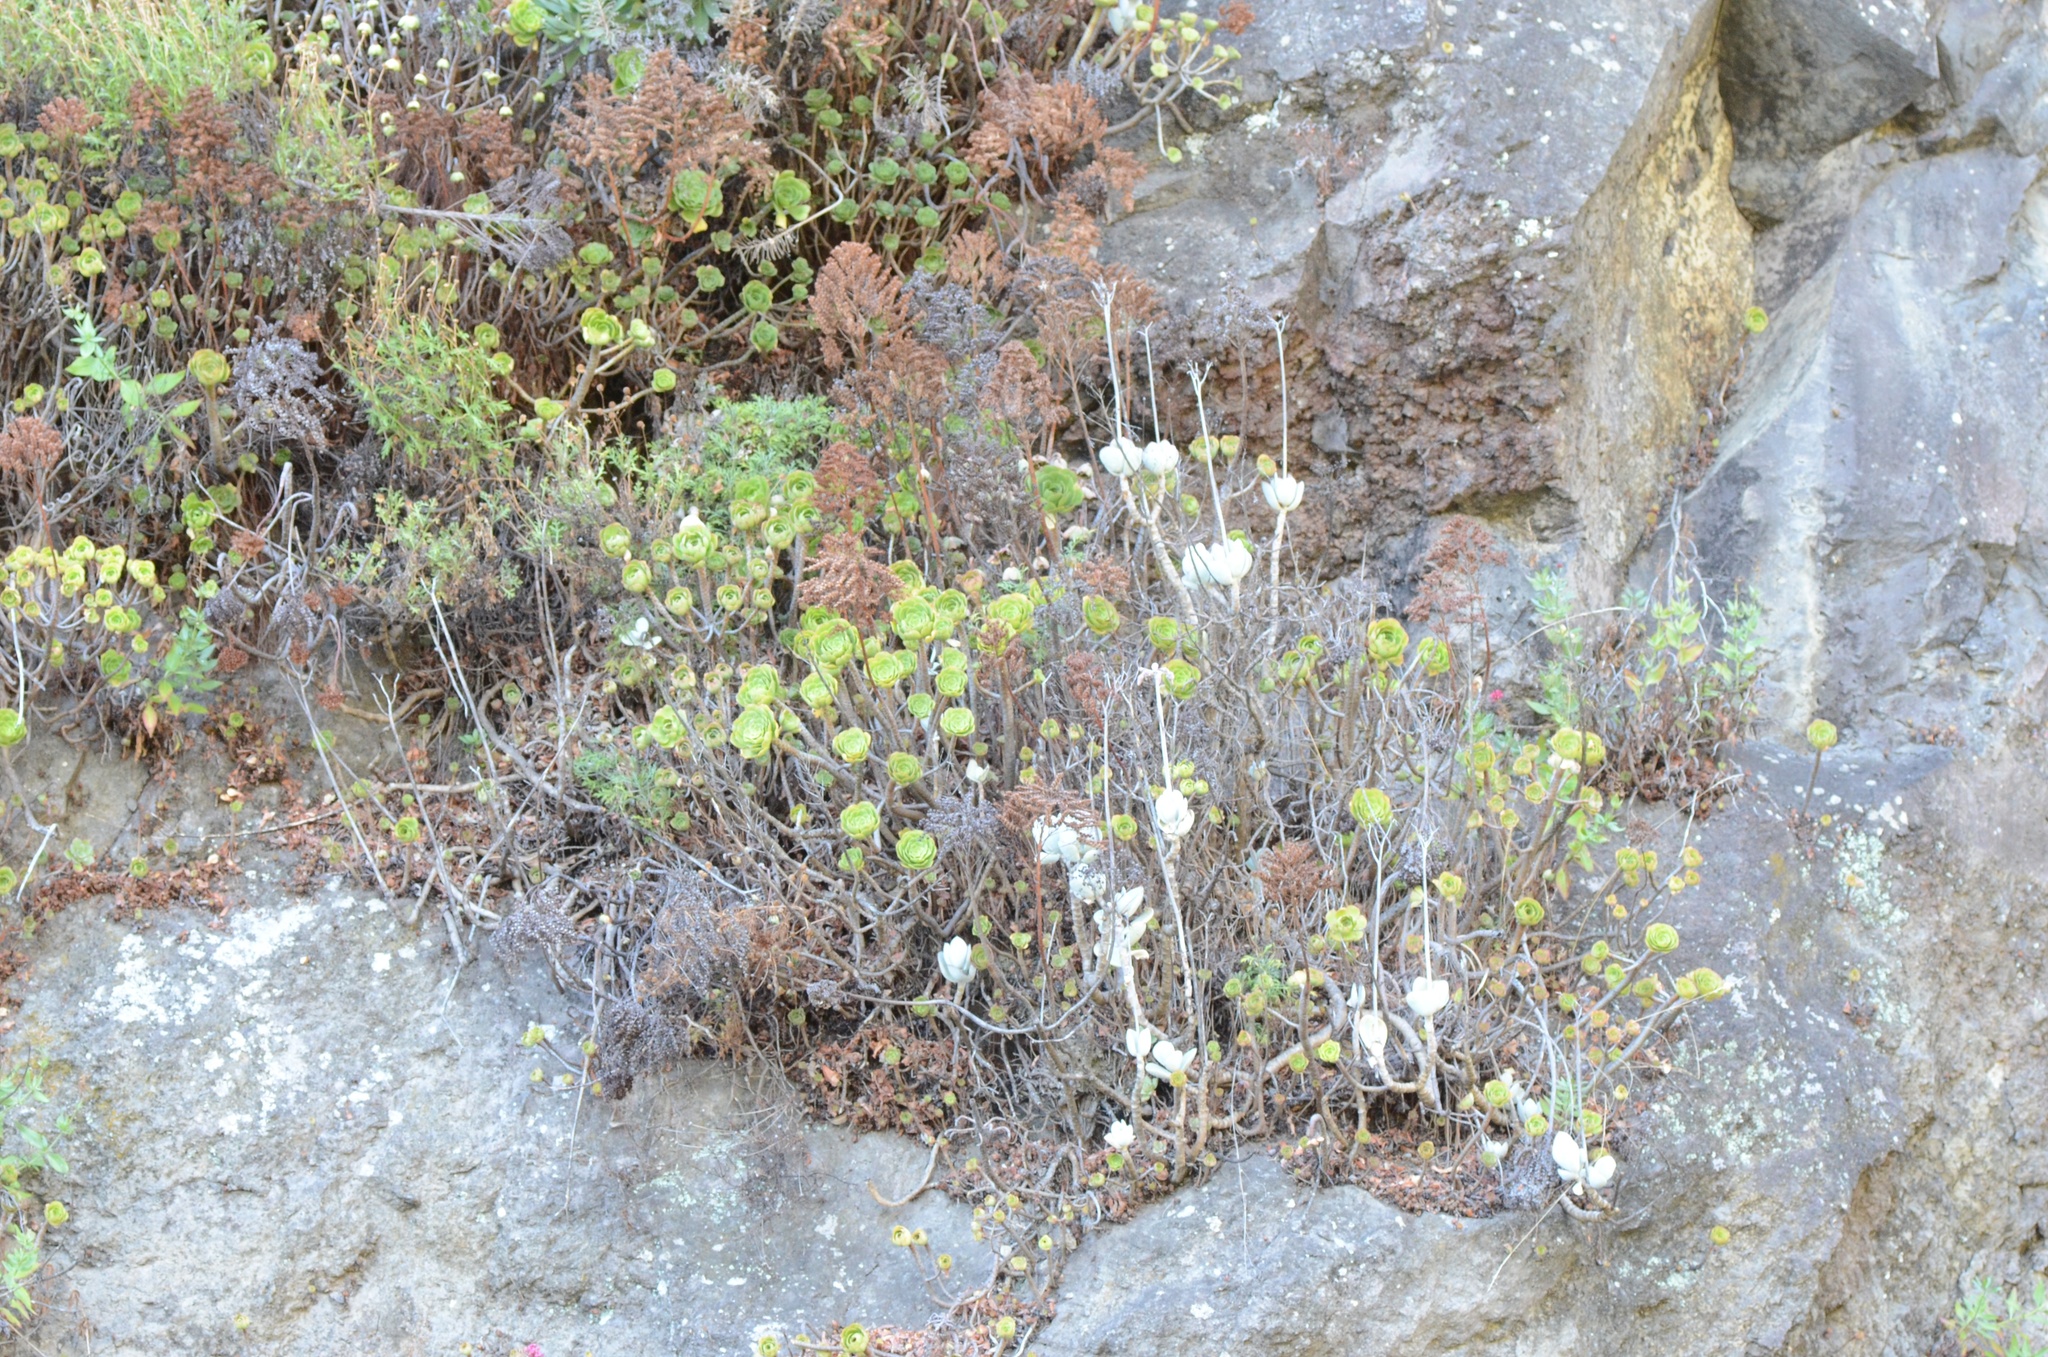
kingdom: Plantae
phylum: Tracheophyta
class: Magnoliopsida
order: Saxifragales
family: Crassulaceae
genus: Cotyledon
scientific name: Cotyledon orbiculata
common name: Pig's ear
